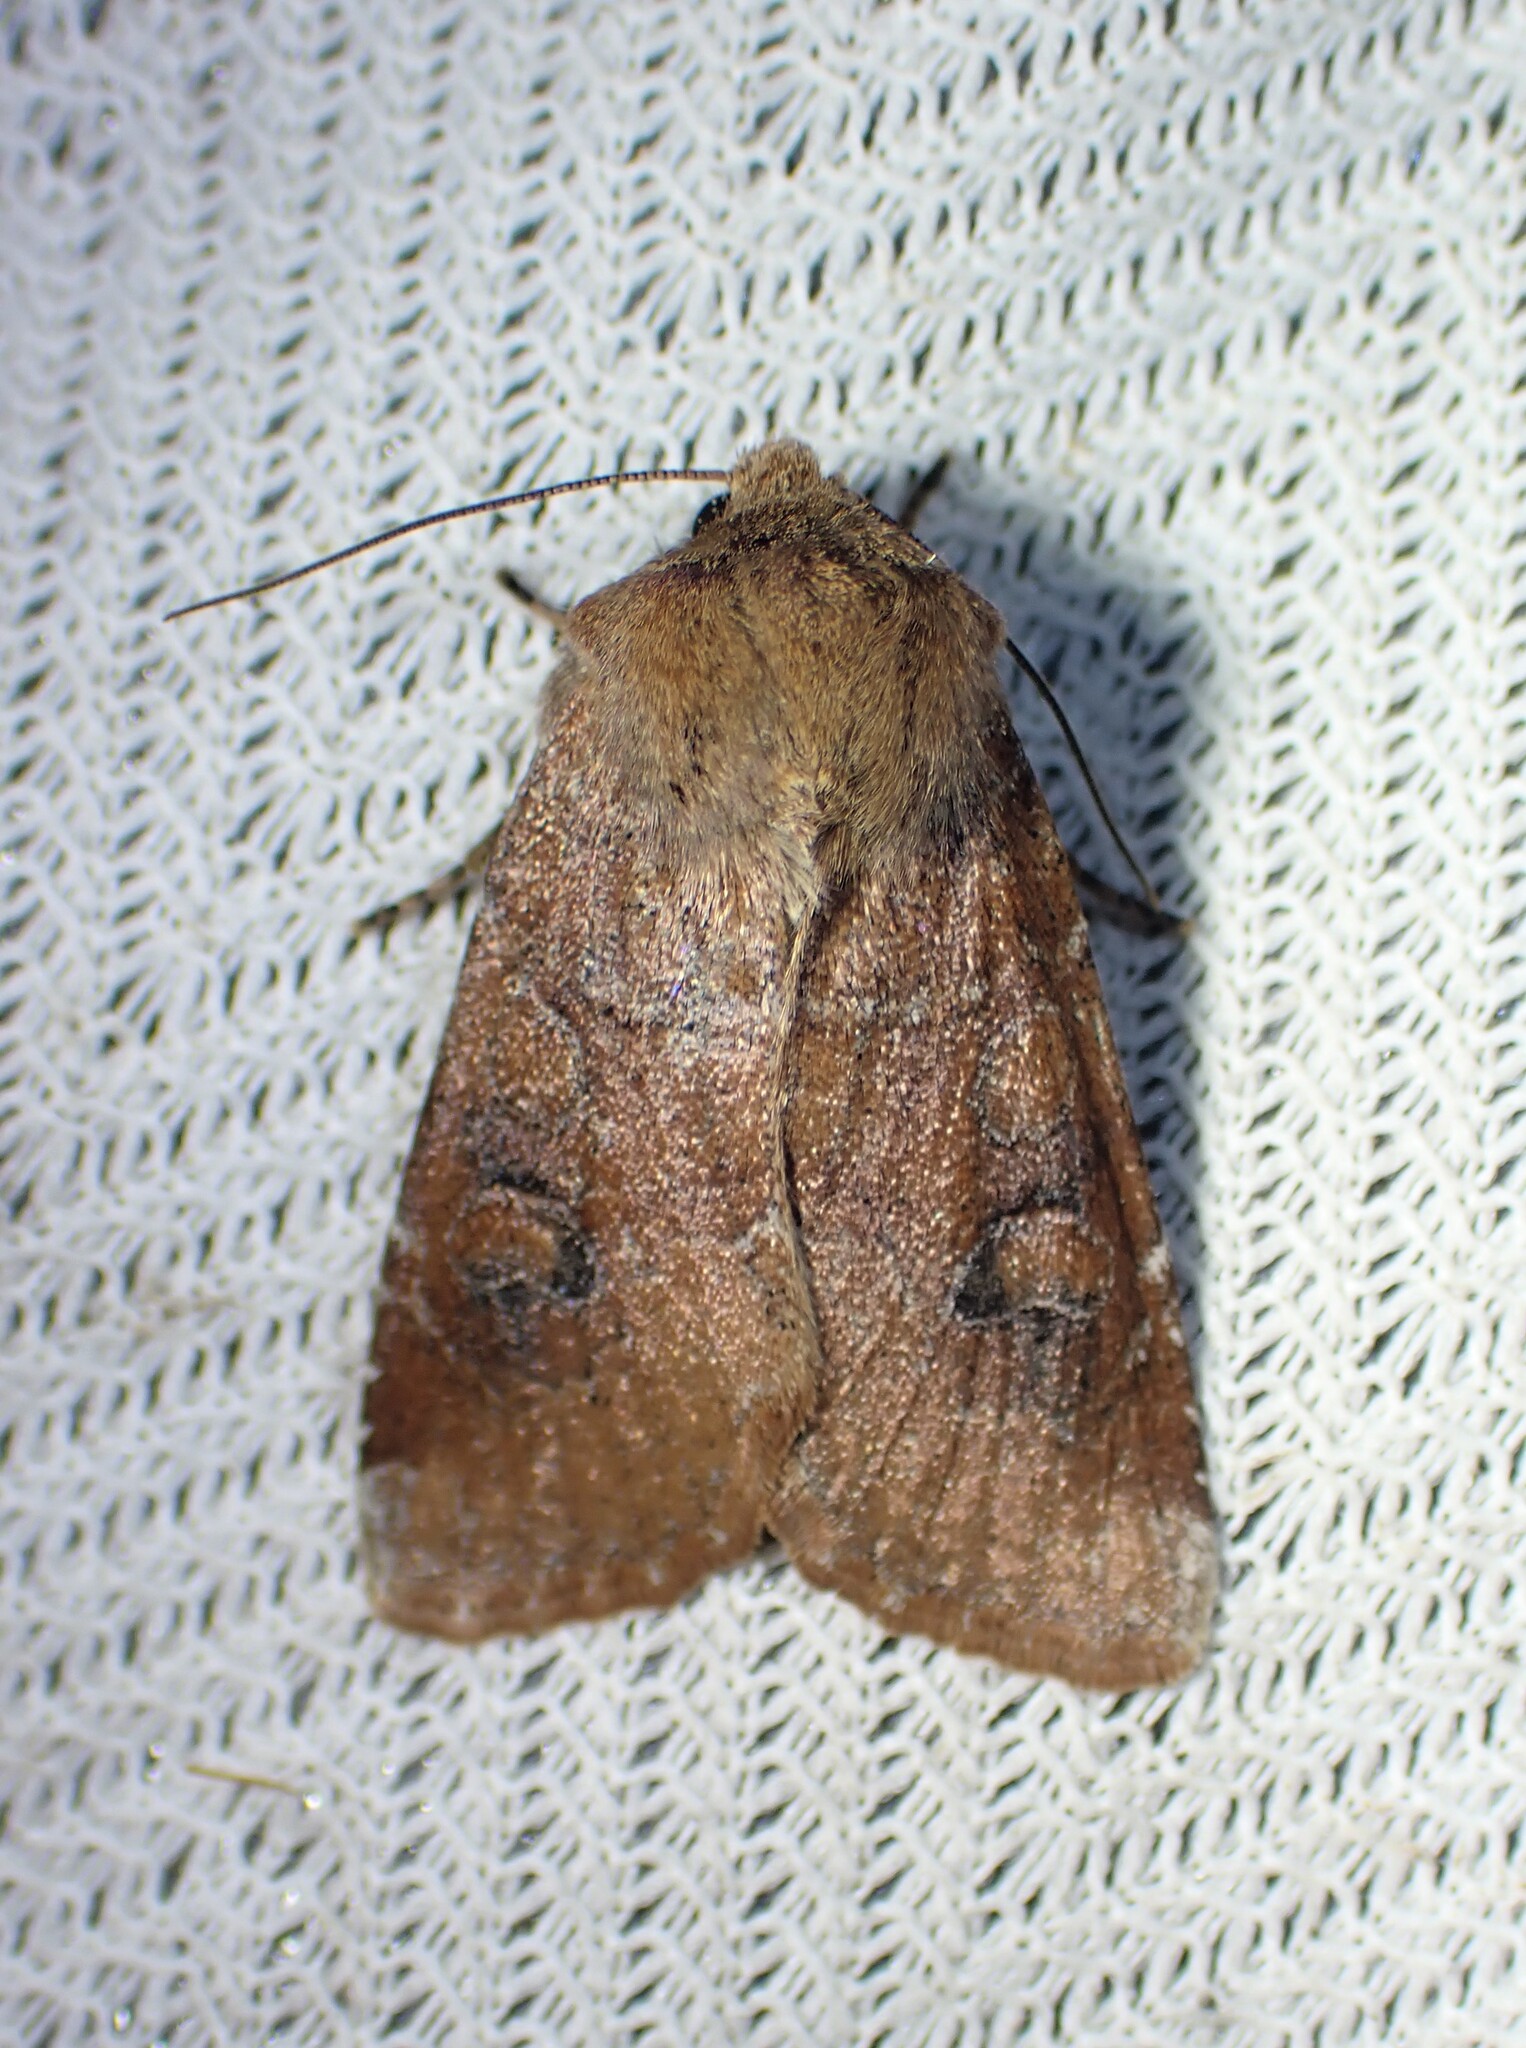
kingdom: Animalia
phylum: Arthropoda
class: Insecta
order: Lepidoptera
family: Noctuidae
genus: Crocigrapha
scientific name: Crocigrapha normani
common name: Norman's quaker
